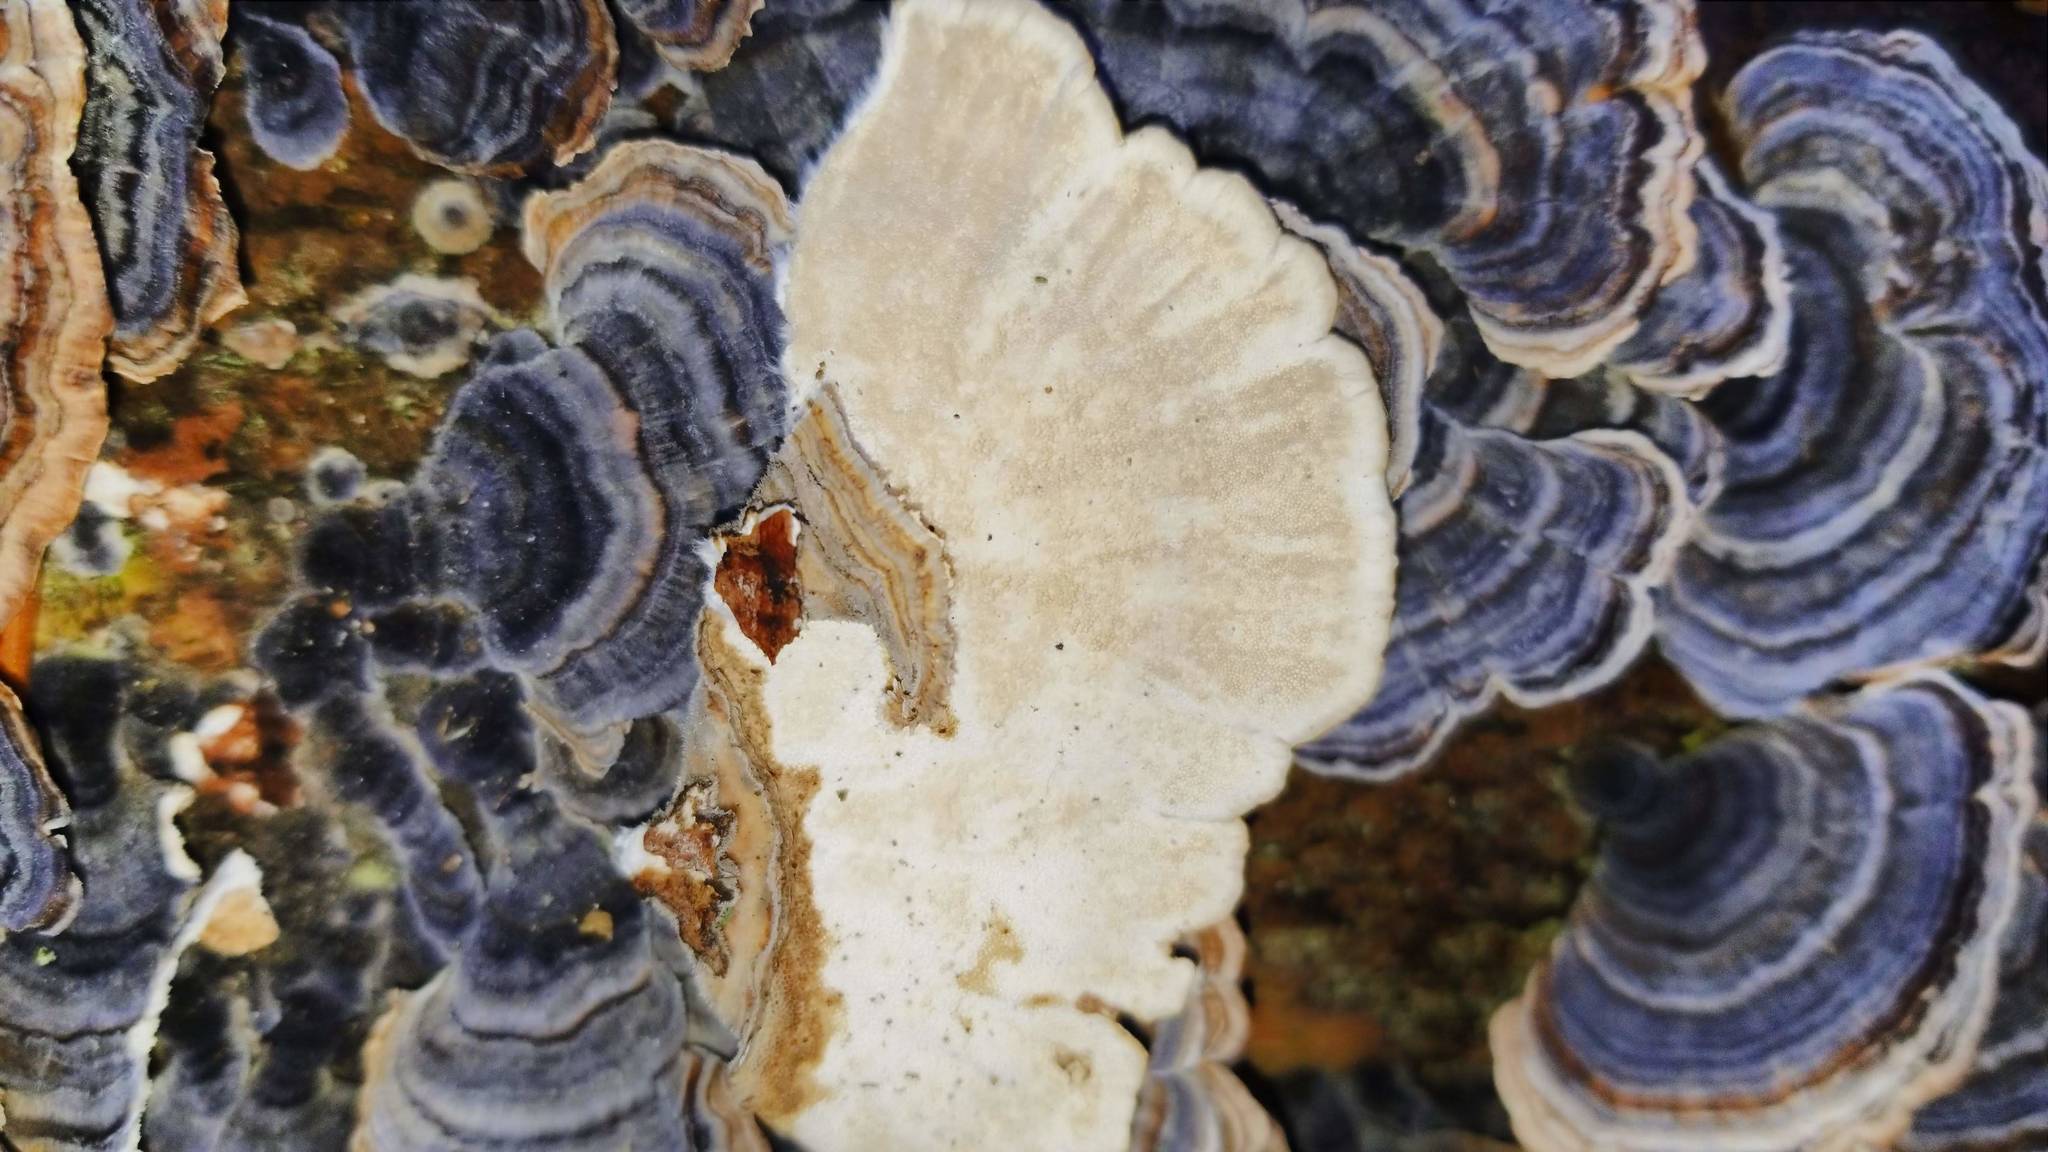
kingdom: Fungi
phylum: Basidiomycota
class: Agaricomycetes
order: Polyporales
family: Polyporaceae
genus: Trametes
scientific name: Trametes versicolor
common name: Turkeytail
